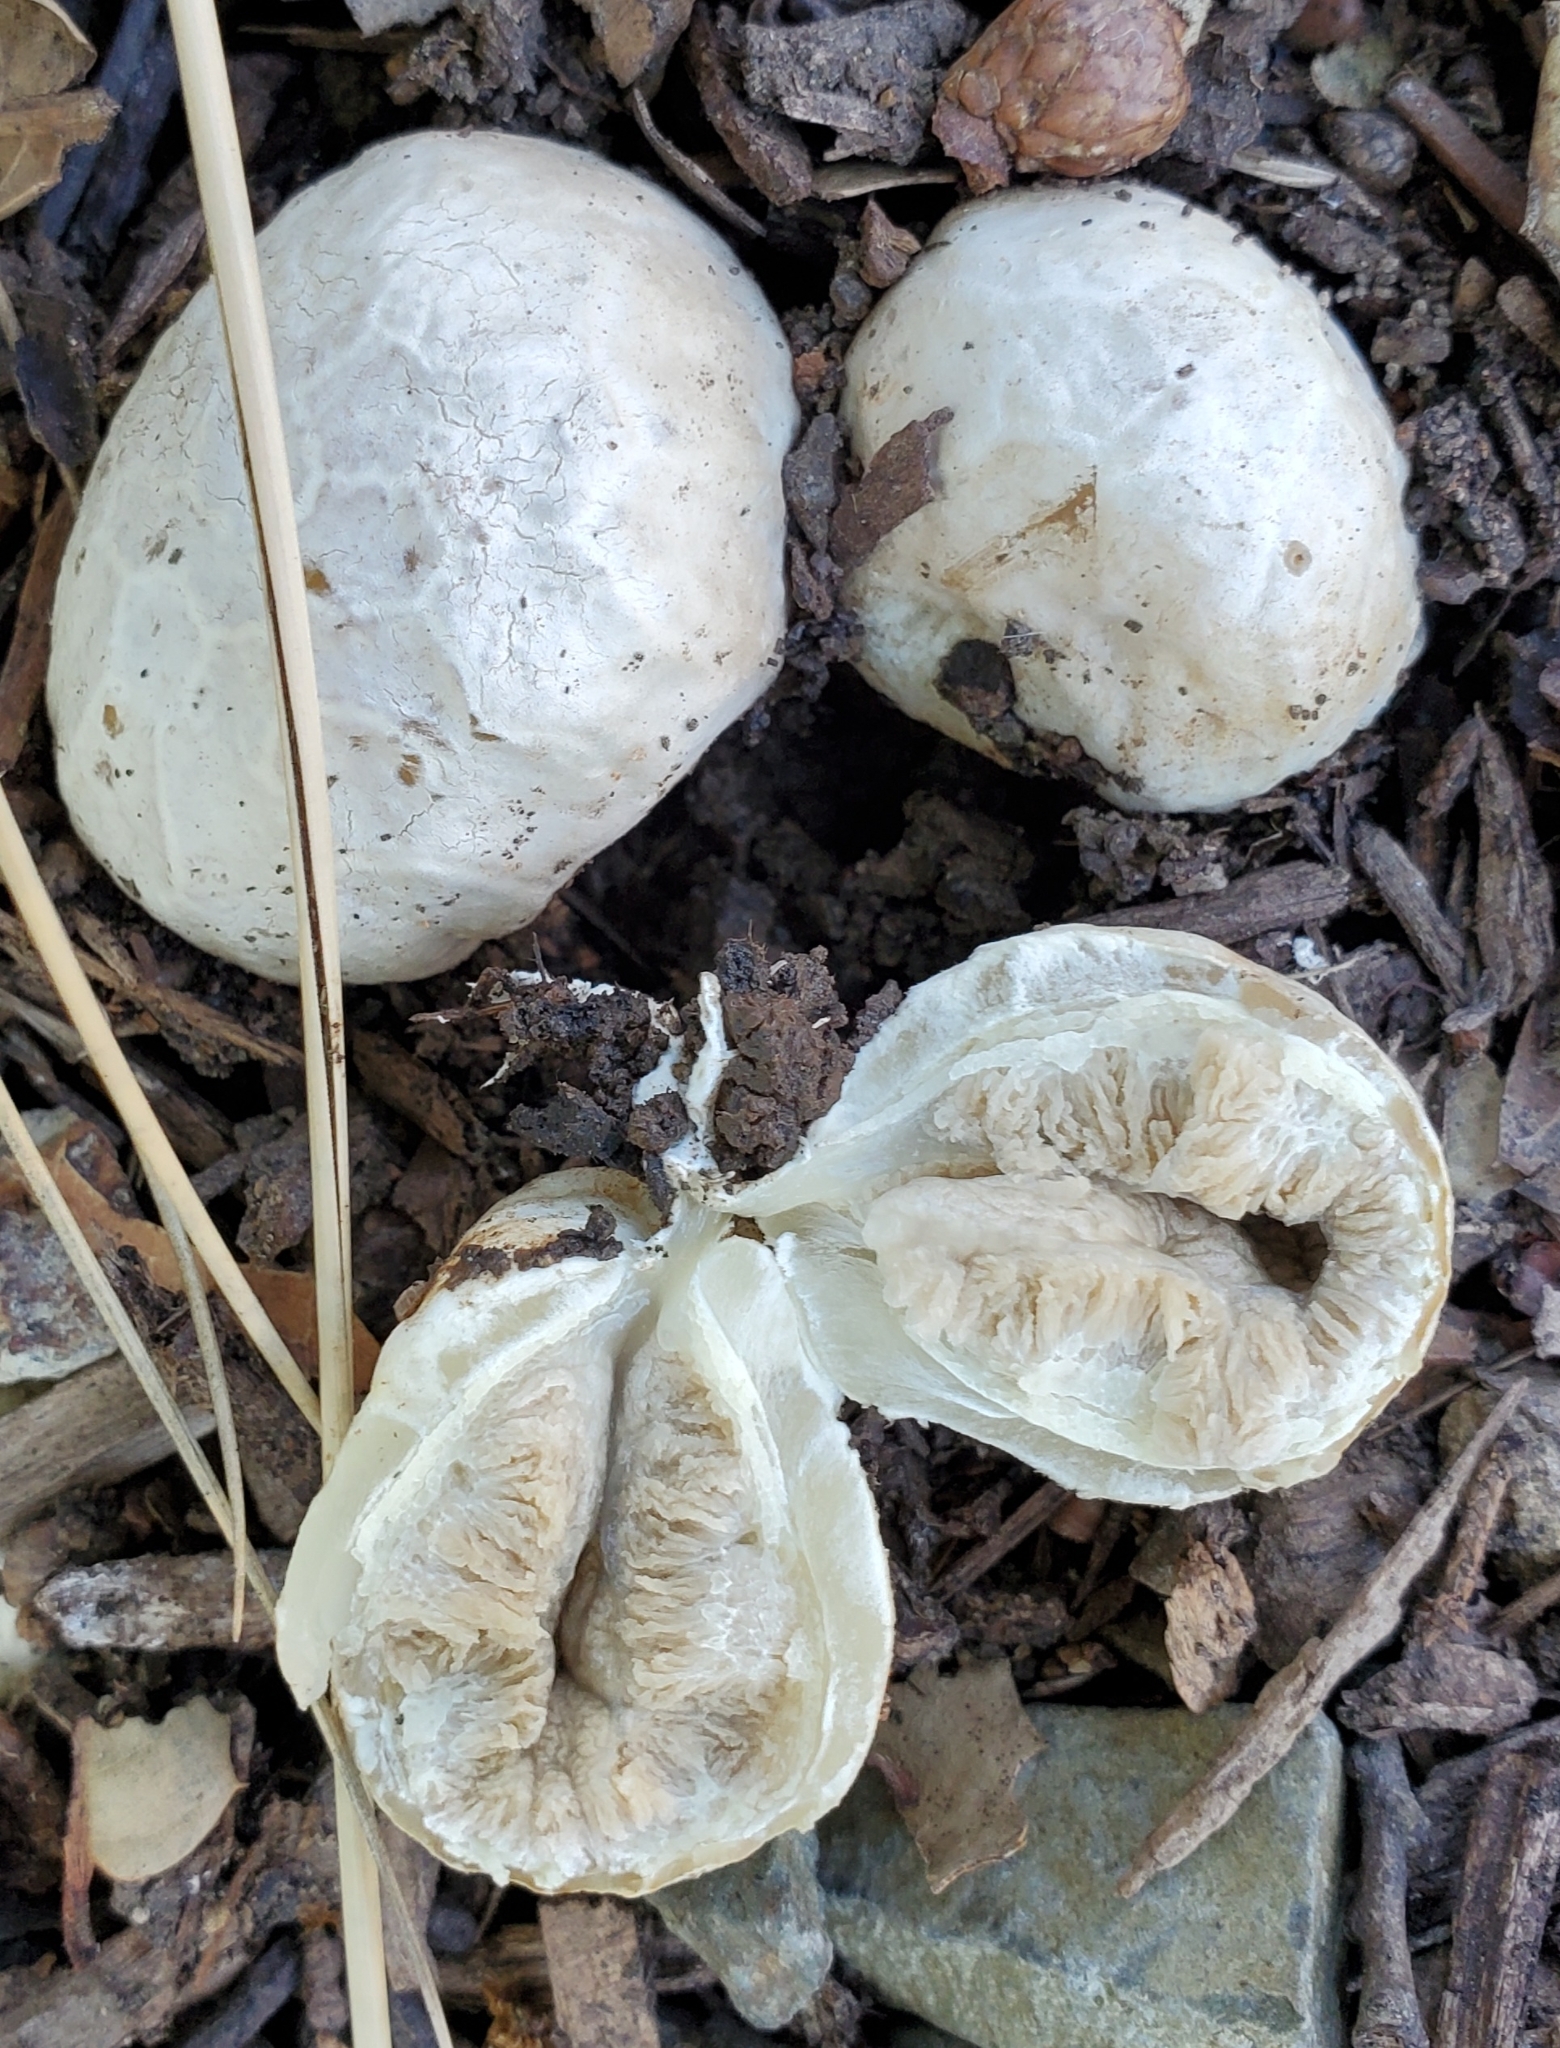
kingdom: Fungi
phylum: Basidiomycota
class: Agaricomycetes
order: Phallales
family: Phallaceae
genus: Clathrus
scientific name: Clathrus ruber
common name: Red cage
